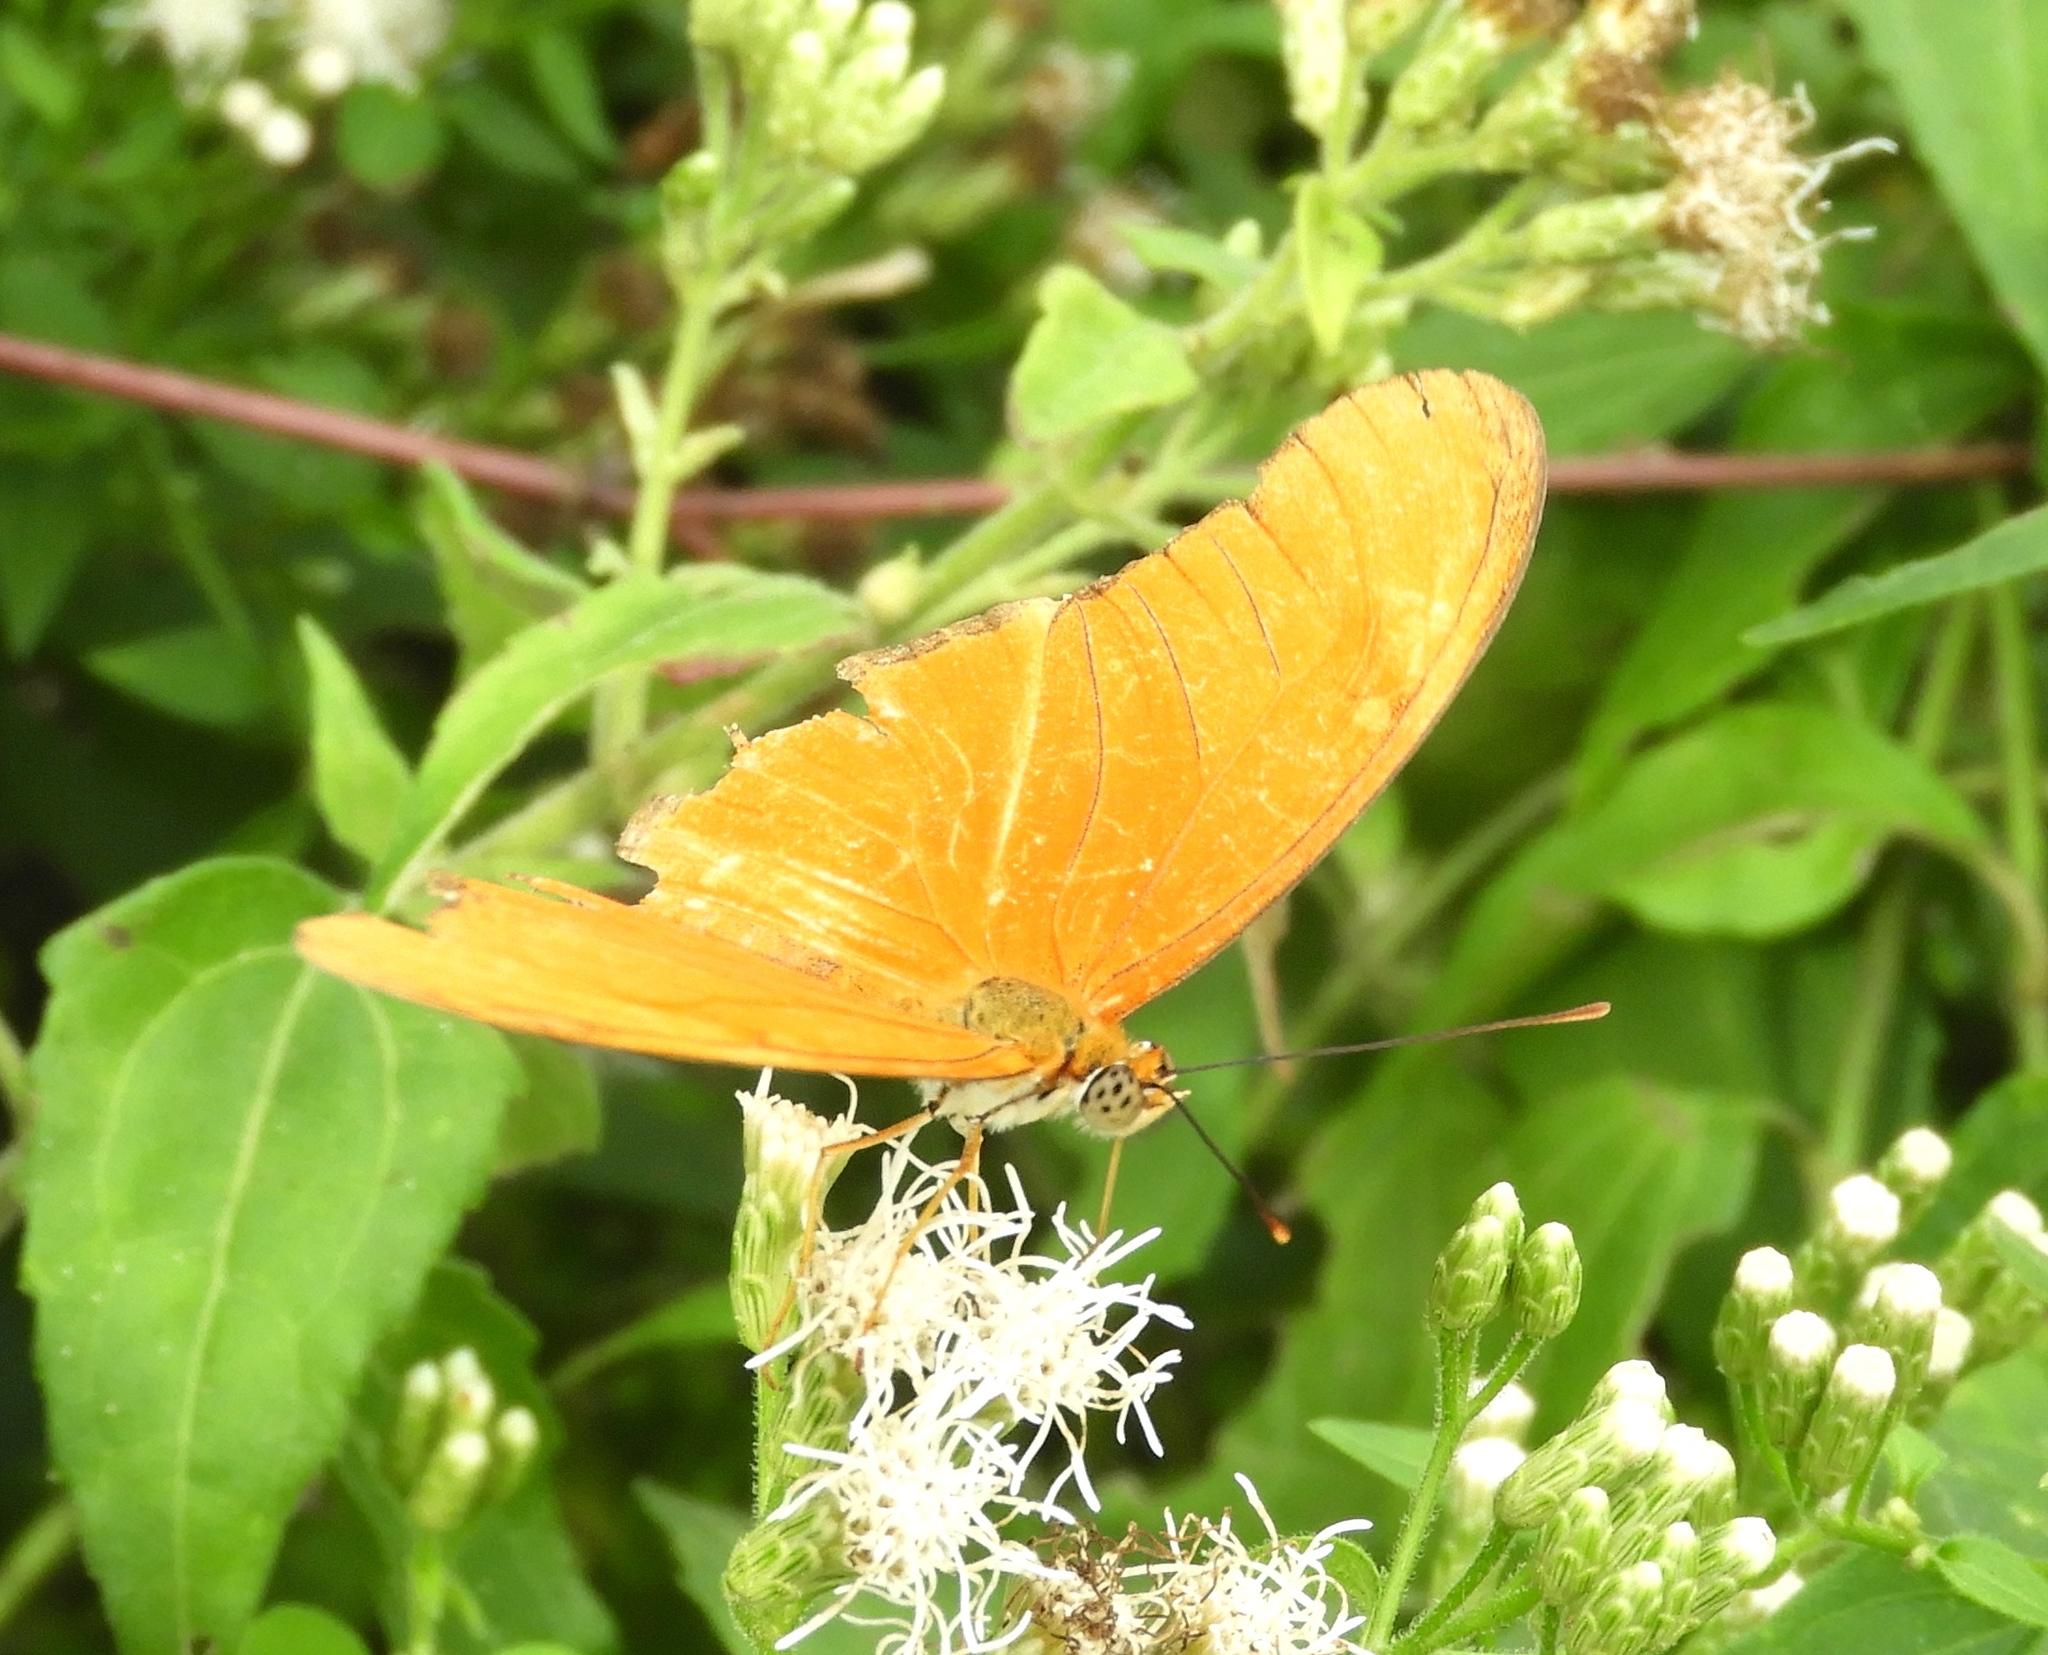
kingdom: Animalia
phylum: Arthropoda
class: Insecta
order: Lepidoptera
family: Nymphalidae
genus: Dryas
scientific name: Dryas iulia
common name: Flambeau
